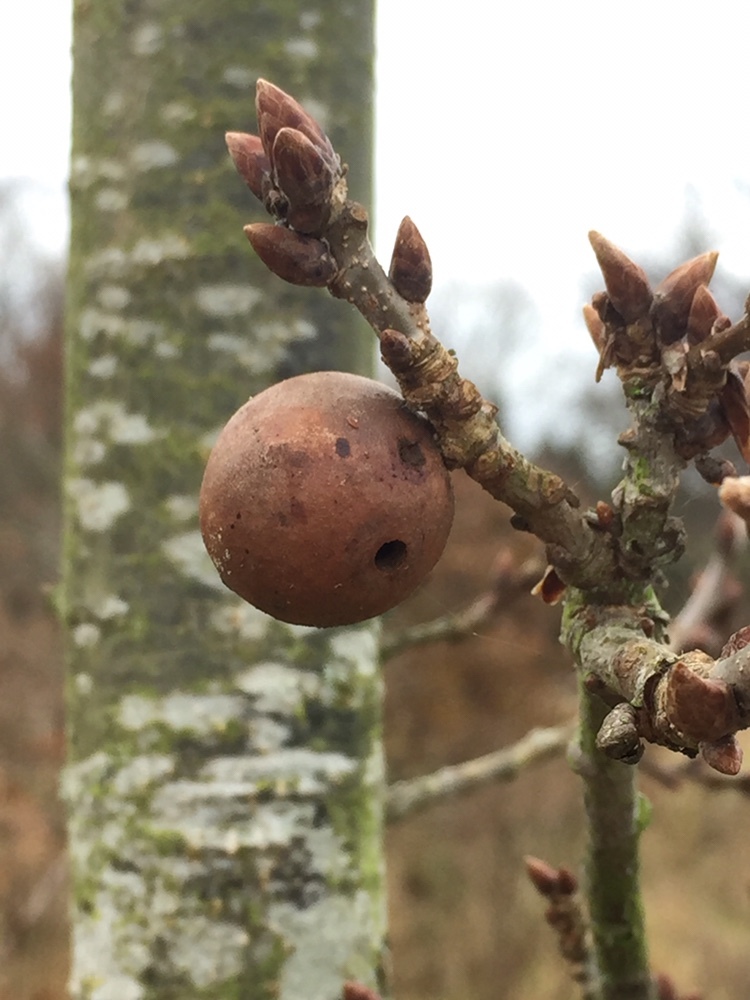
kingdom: Animalia
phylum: Arthropoda
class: Insecta
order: Hymenoptera
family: Cynipidae
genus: Andricus
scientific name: Andricus kollari
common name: Marble gall
